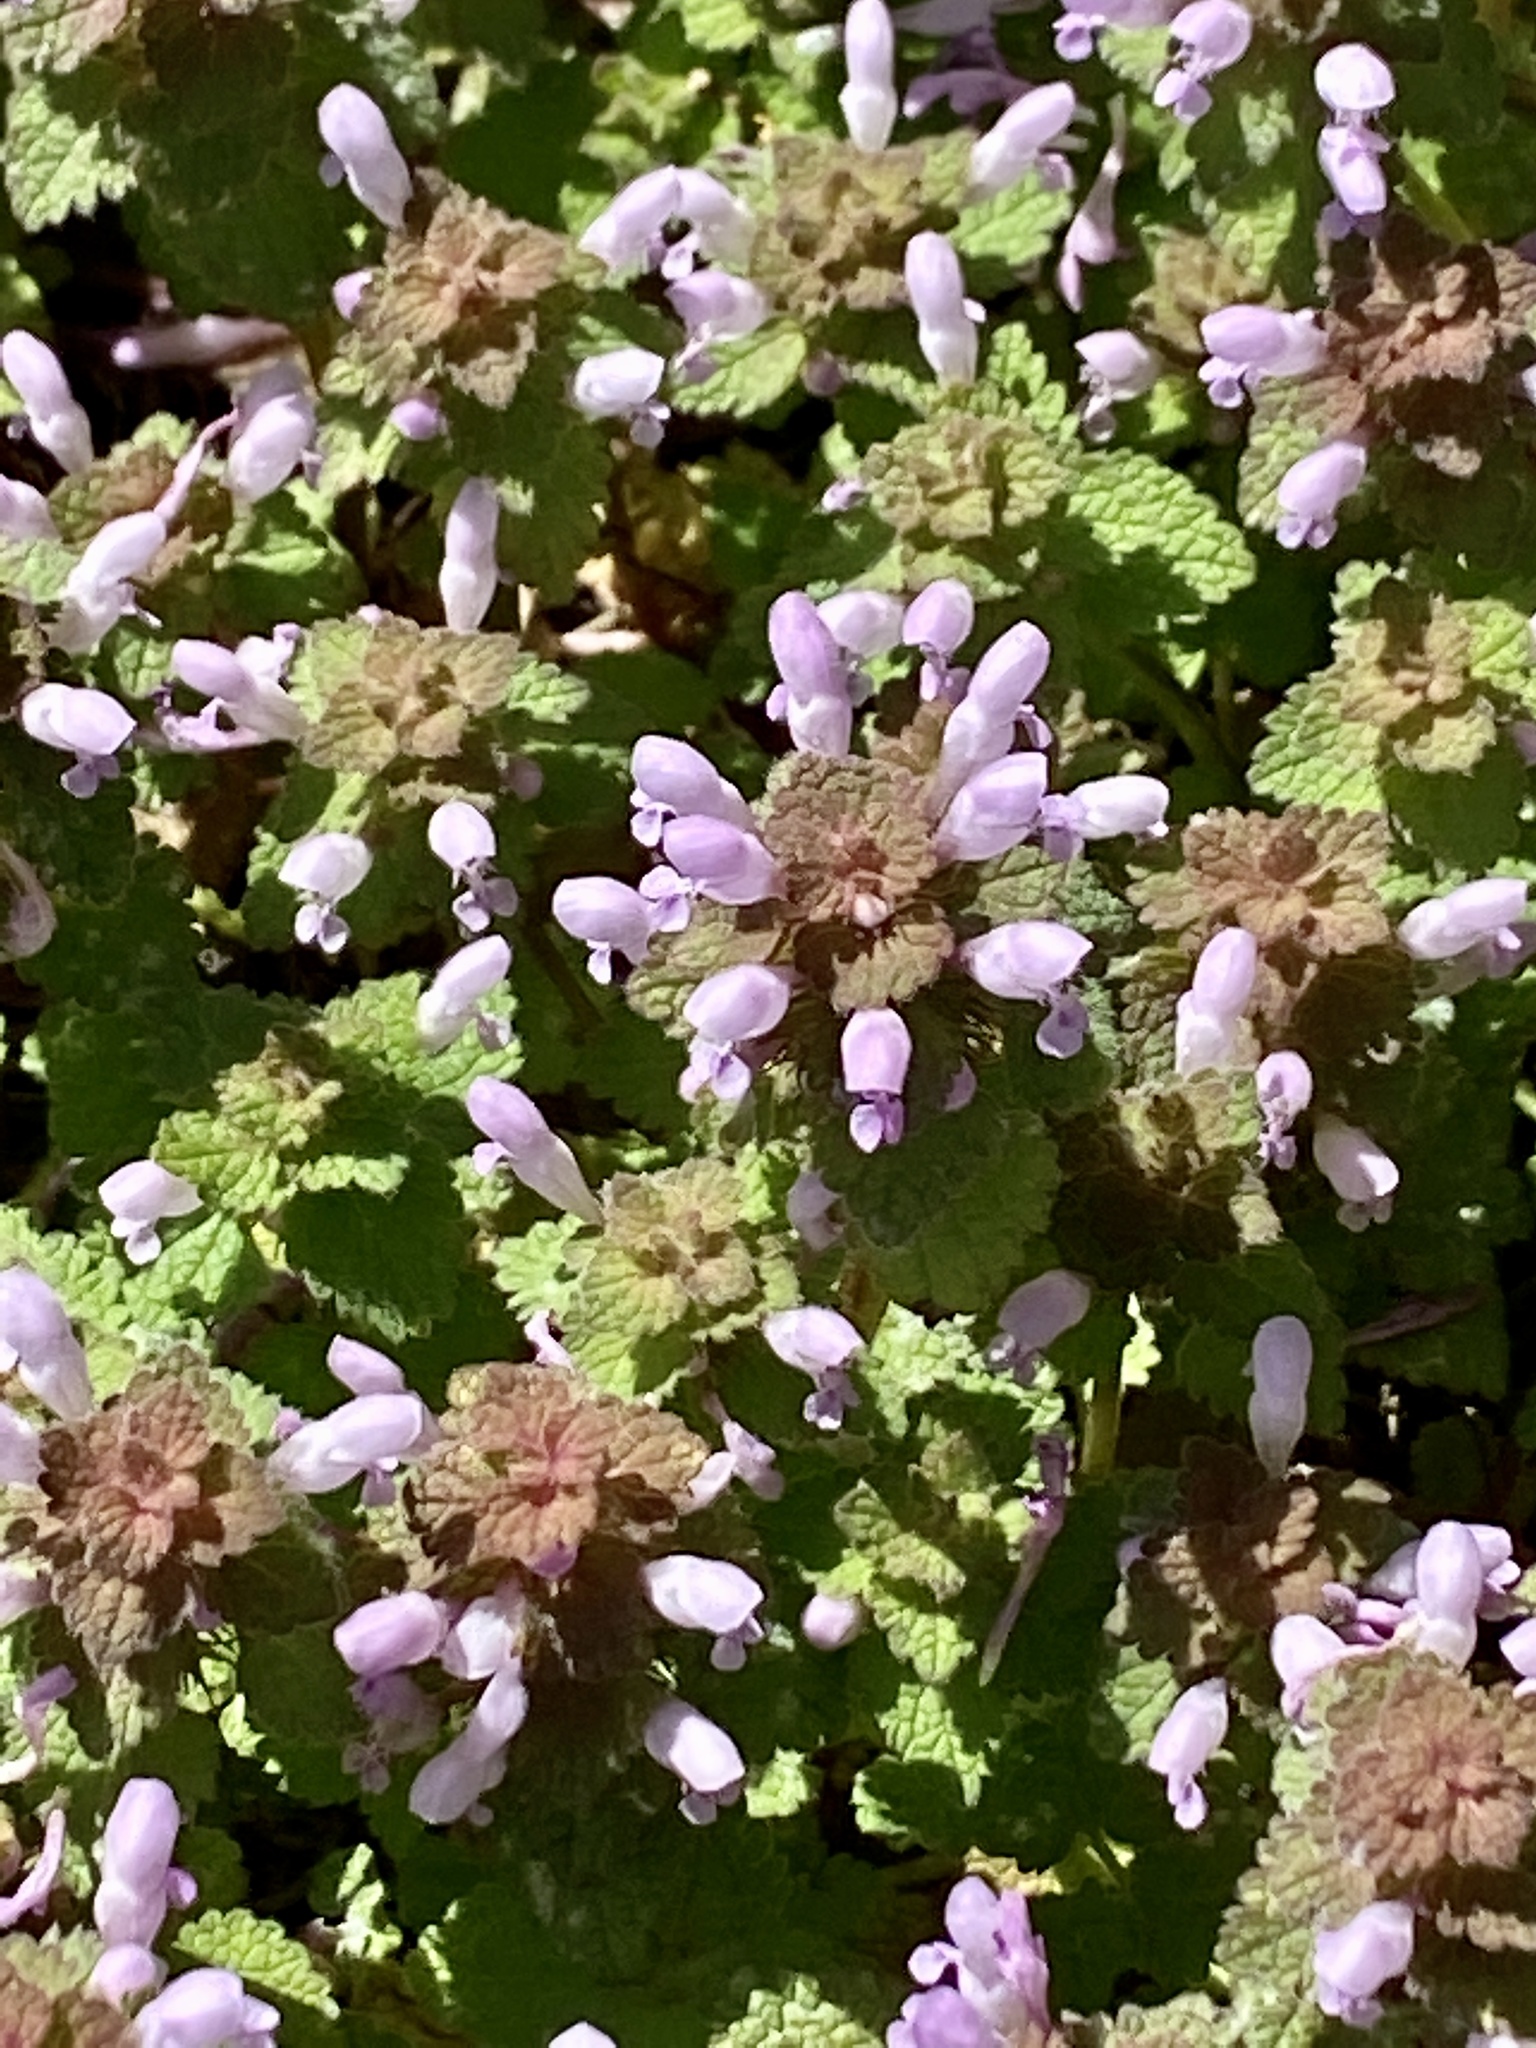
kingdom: Plantae
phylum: Tracheophyta
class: Magnoliopsida
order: Lamiales
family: Lamiaceae
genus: Lamium
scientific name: Lamium purpureum
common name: Red dead-nettle
